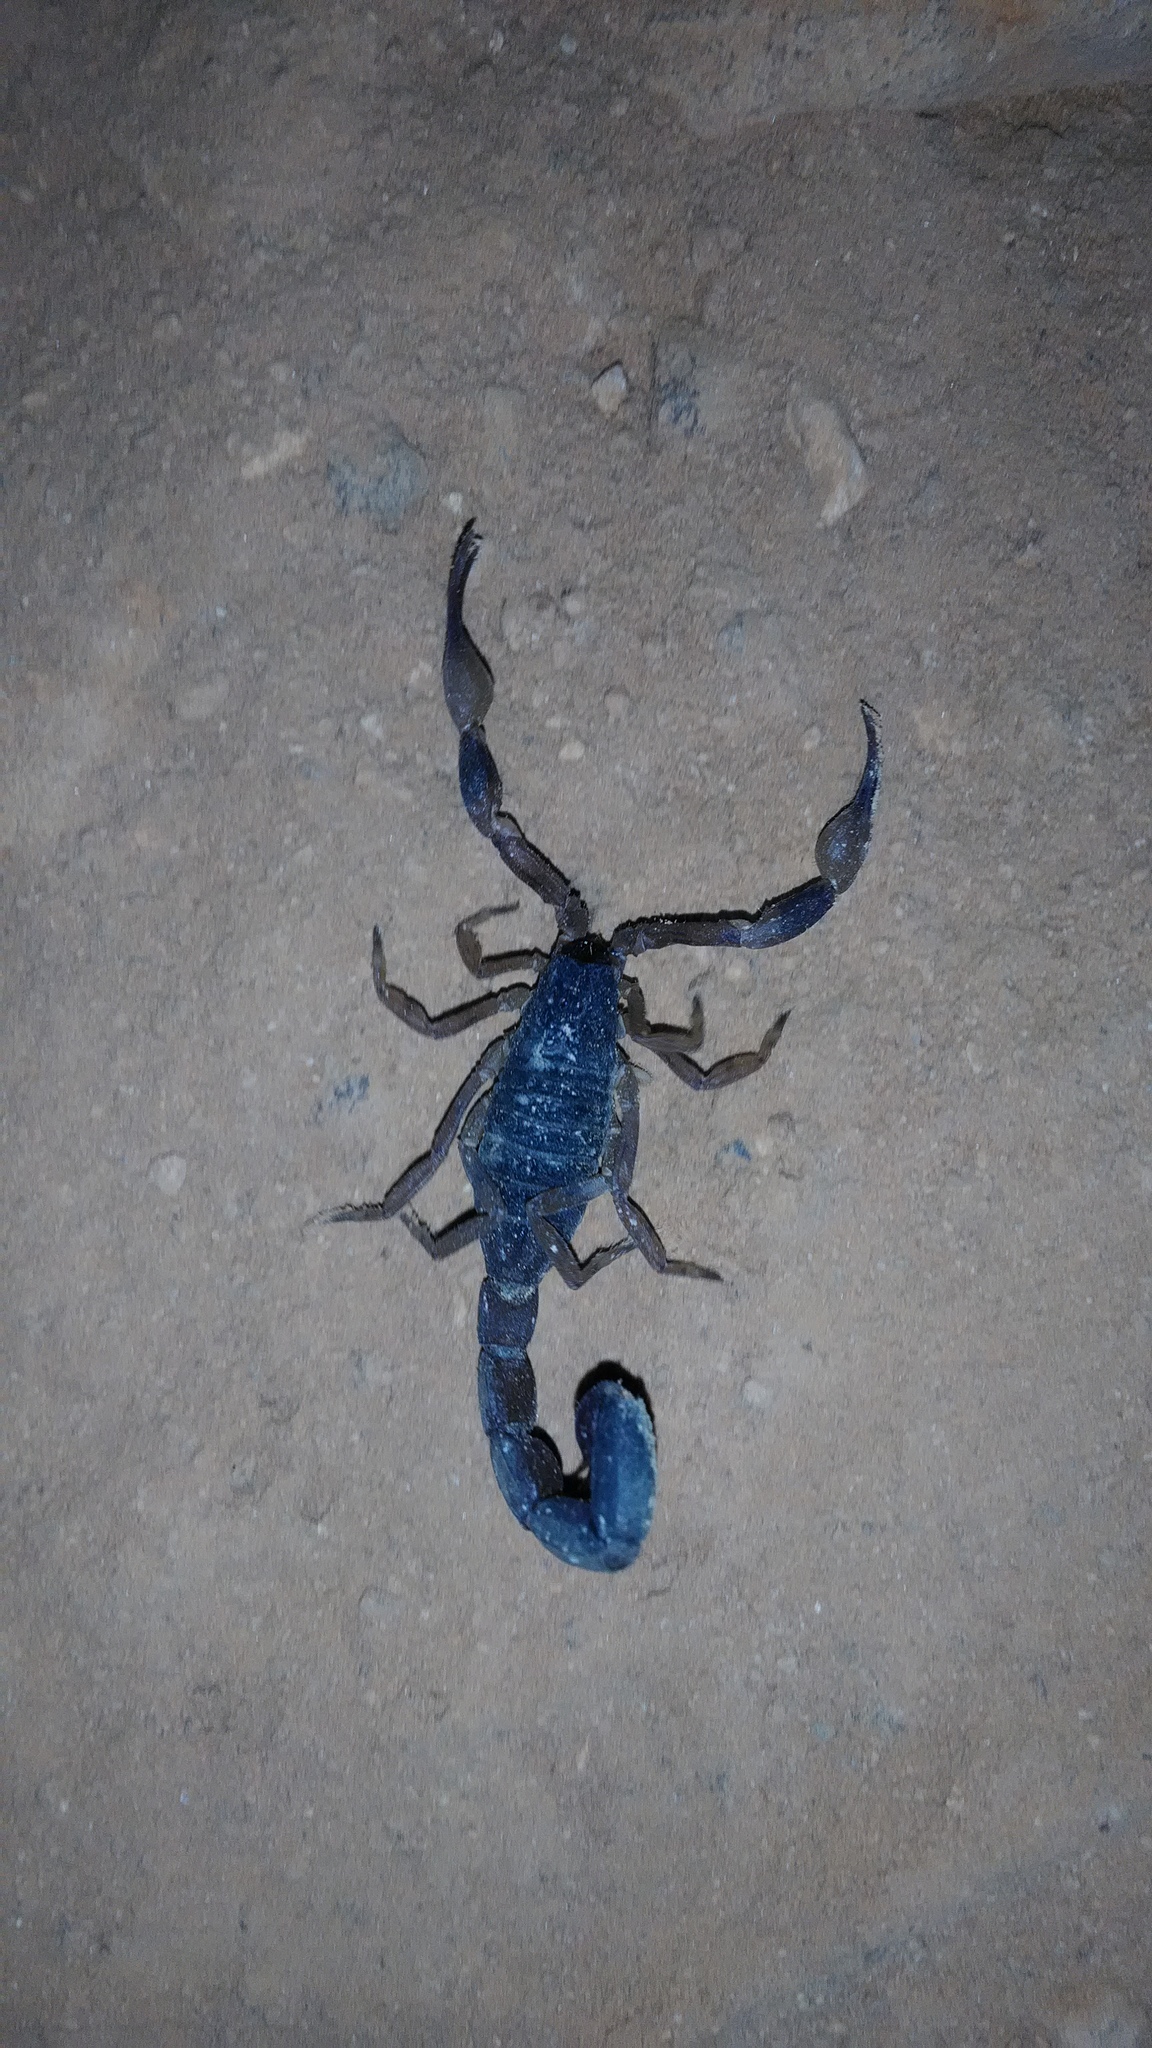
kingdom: Animalia
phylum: Arthropoda
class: Arachnida
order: Scorpiones
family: Buthidae
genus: Tityus
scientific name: Tityus bahiensis
